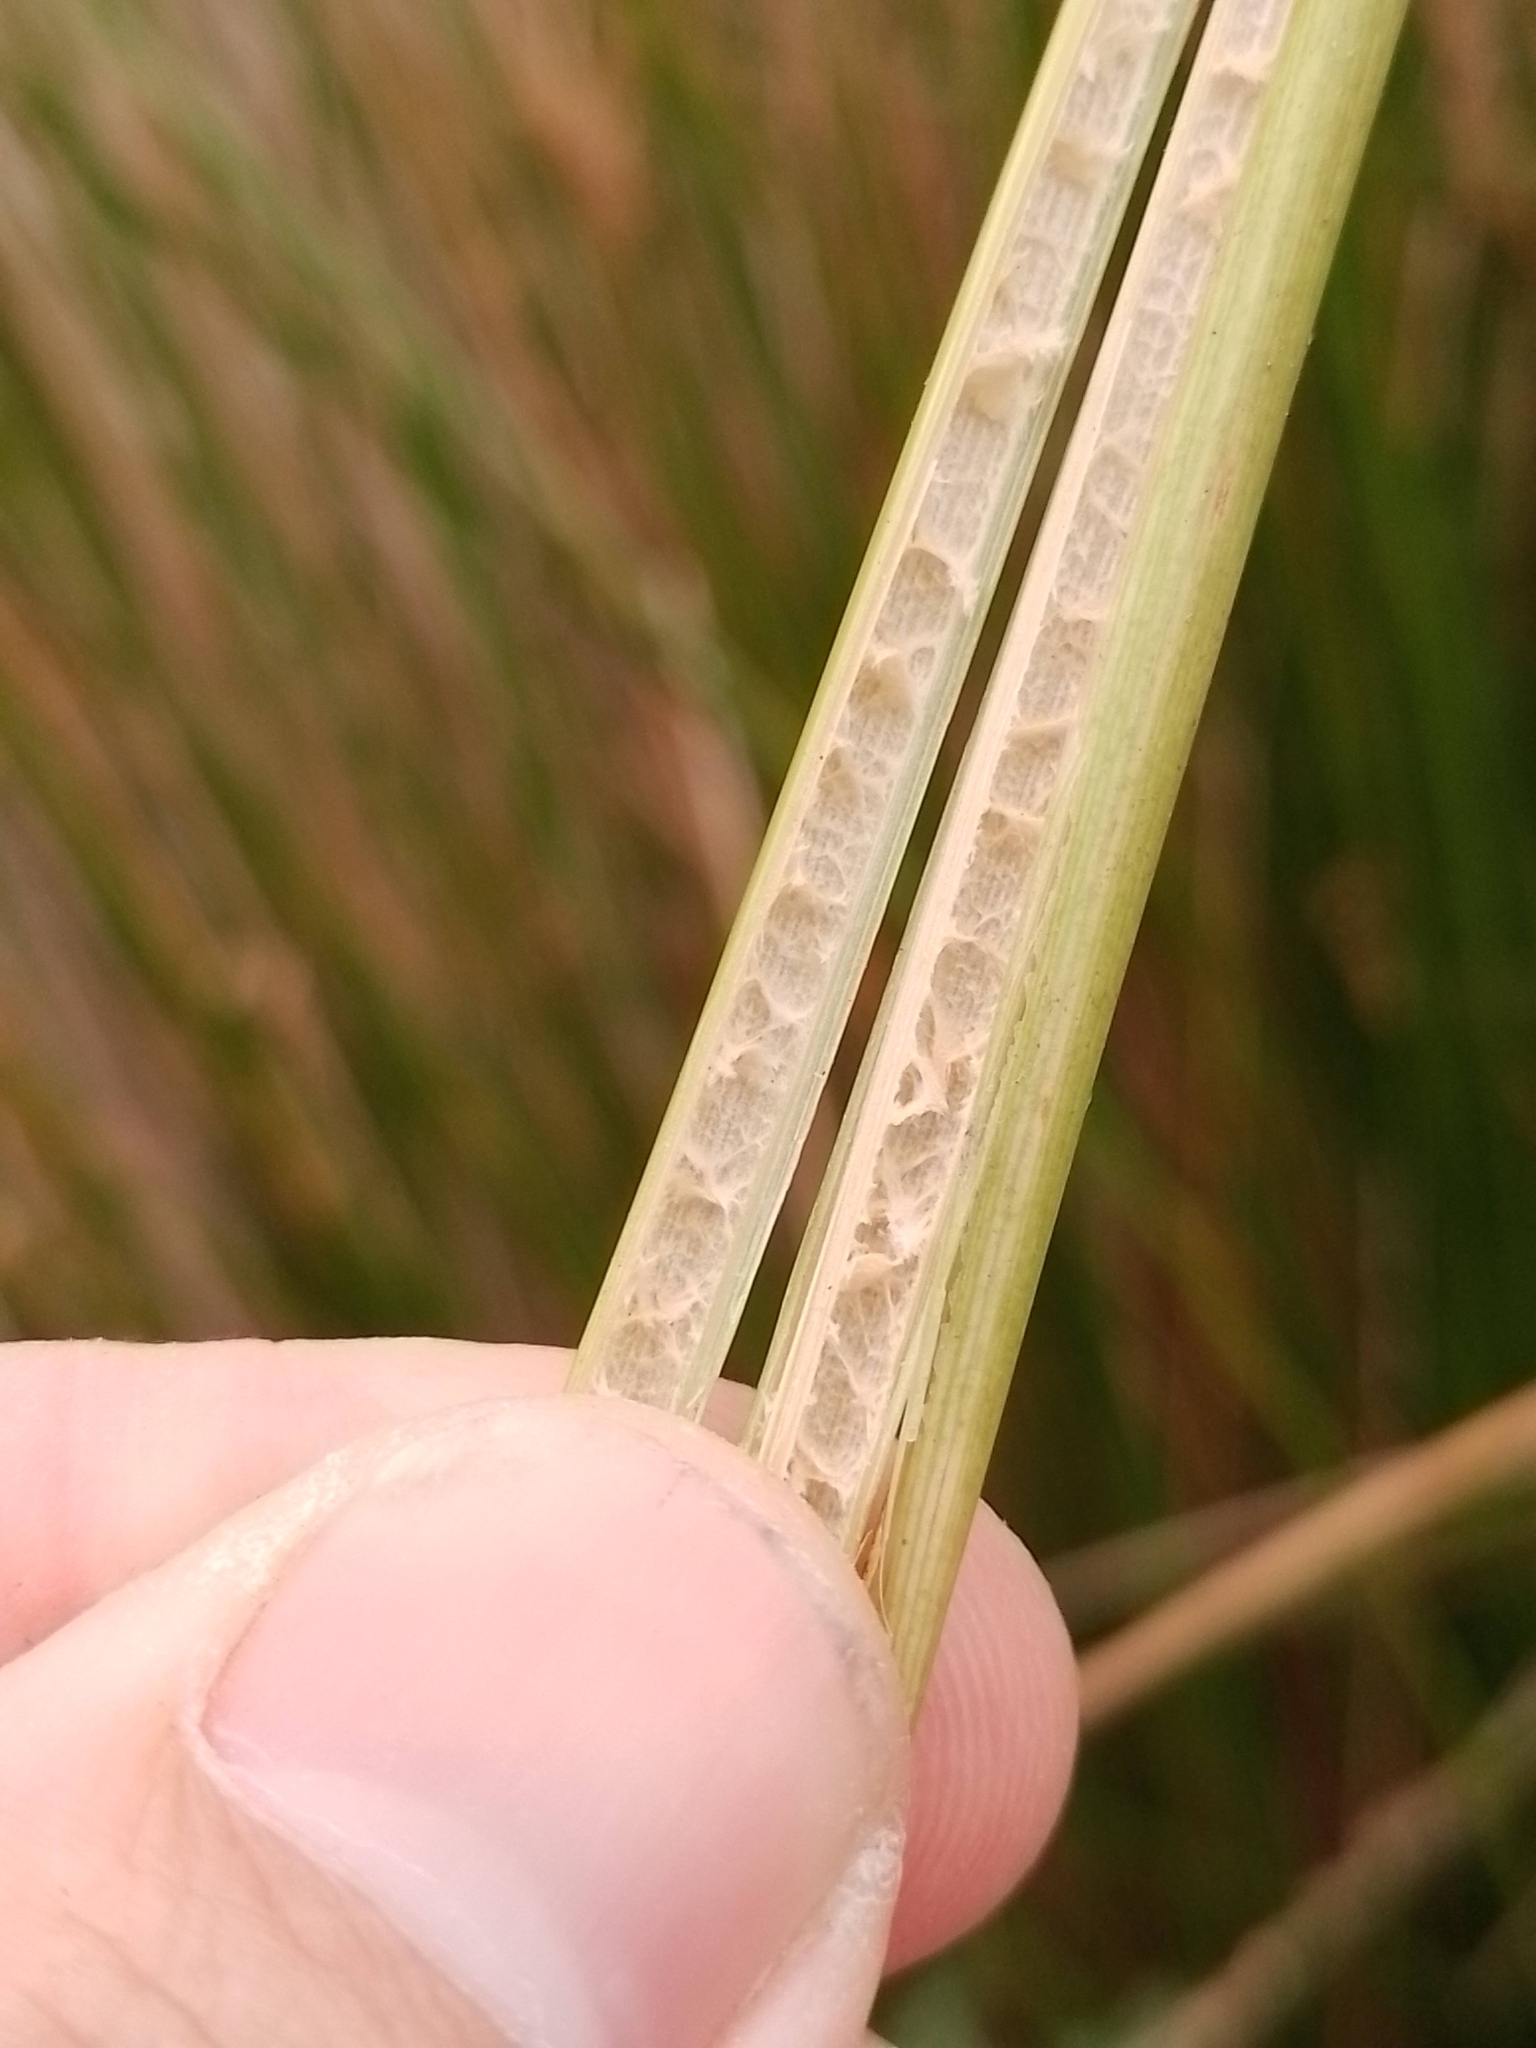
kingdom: Plantae
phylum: Tracheophyta
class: Liliopsida
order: Poales
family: Juncaceae
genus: Juncus
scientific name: Juncus procerus
